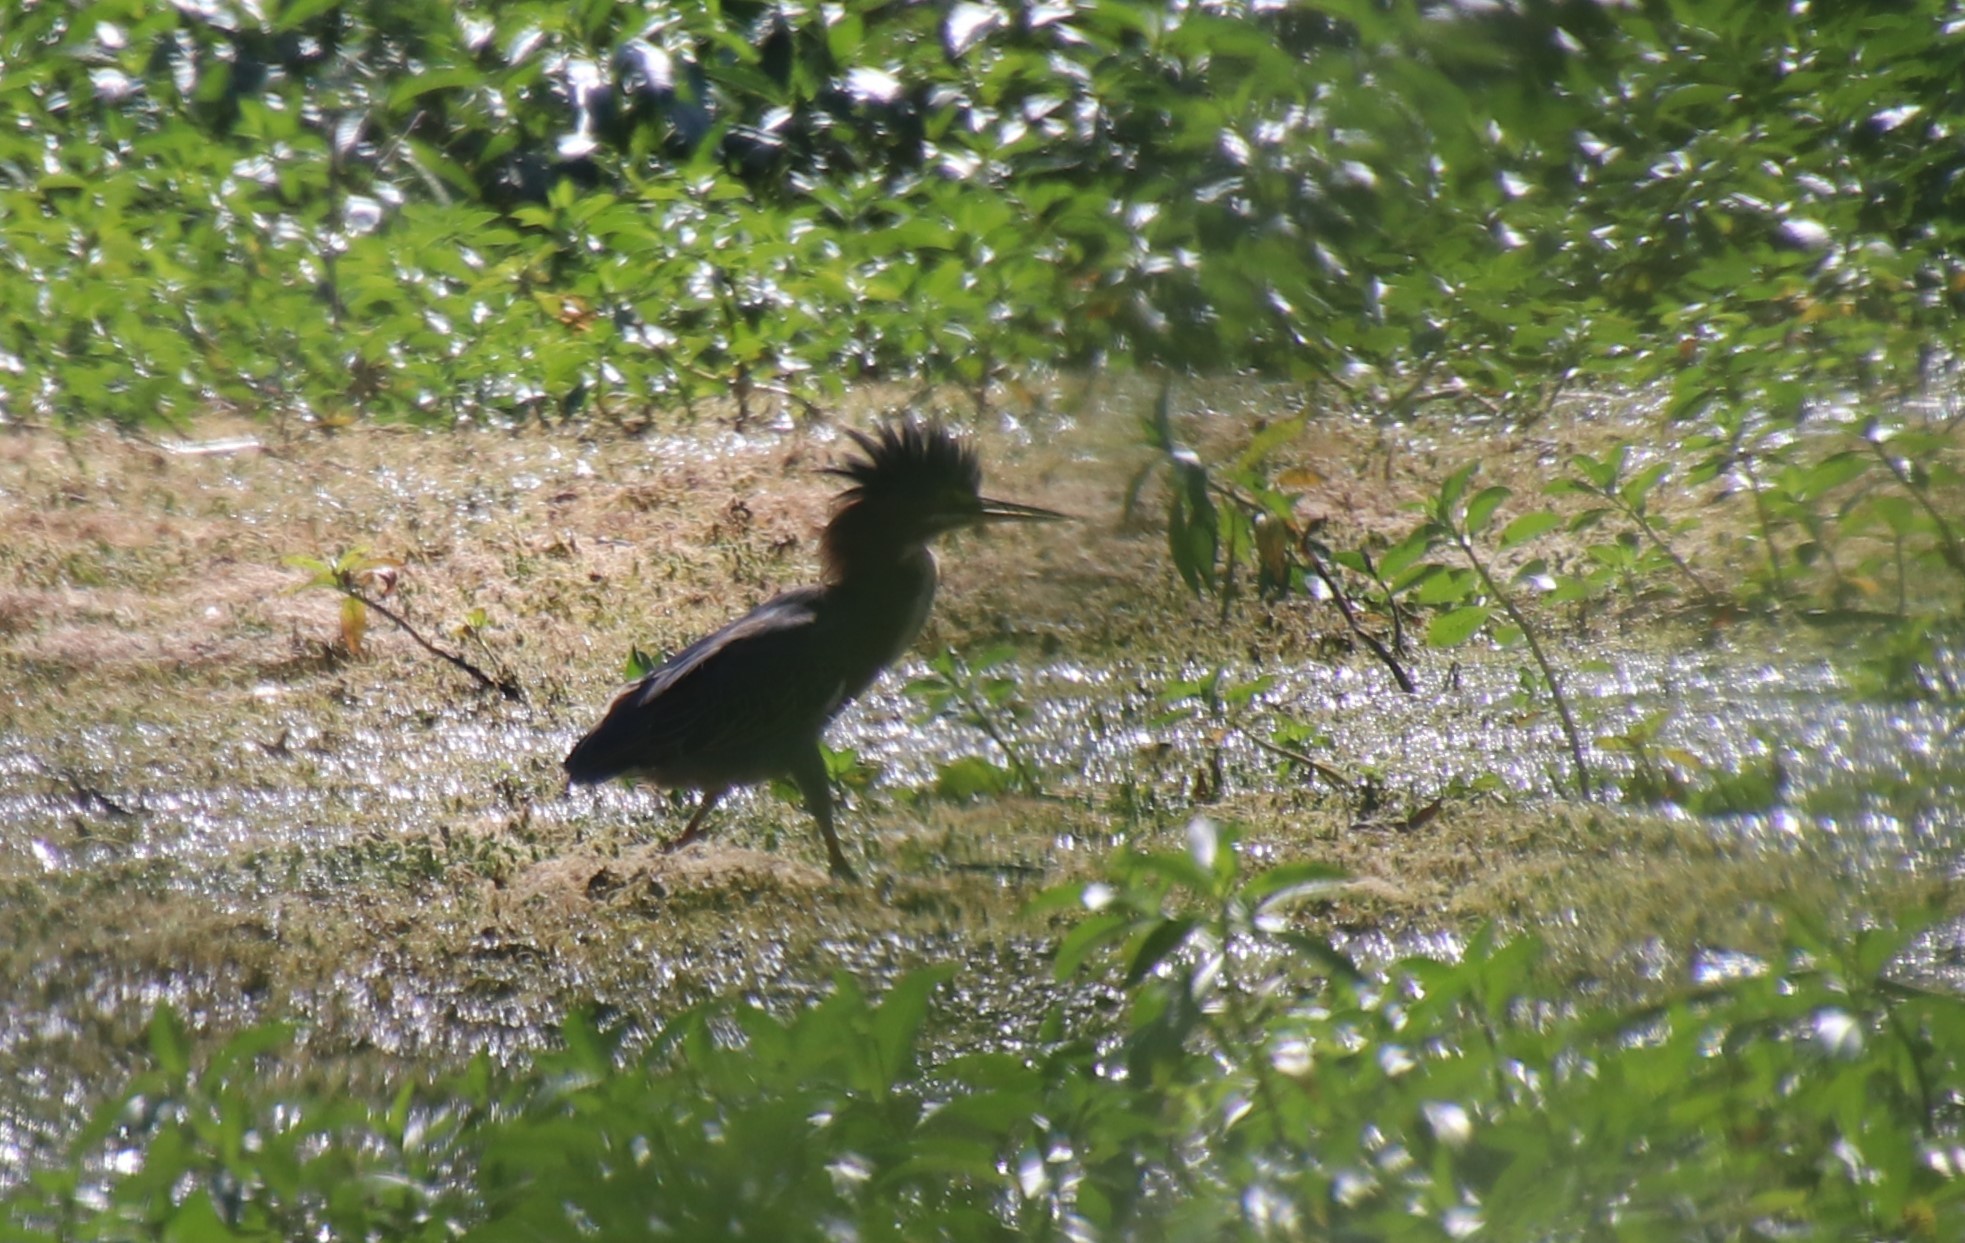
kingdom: Animalia
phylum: Chordata
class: Aves
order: Pelecaniformes
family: Ardeidae
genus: Butorides
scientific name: Butorides virescens
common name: Green heron
